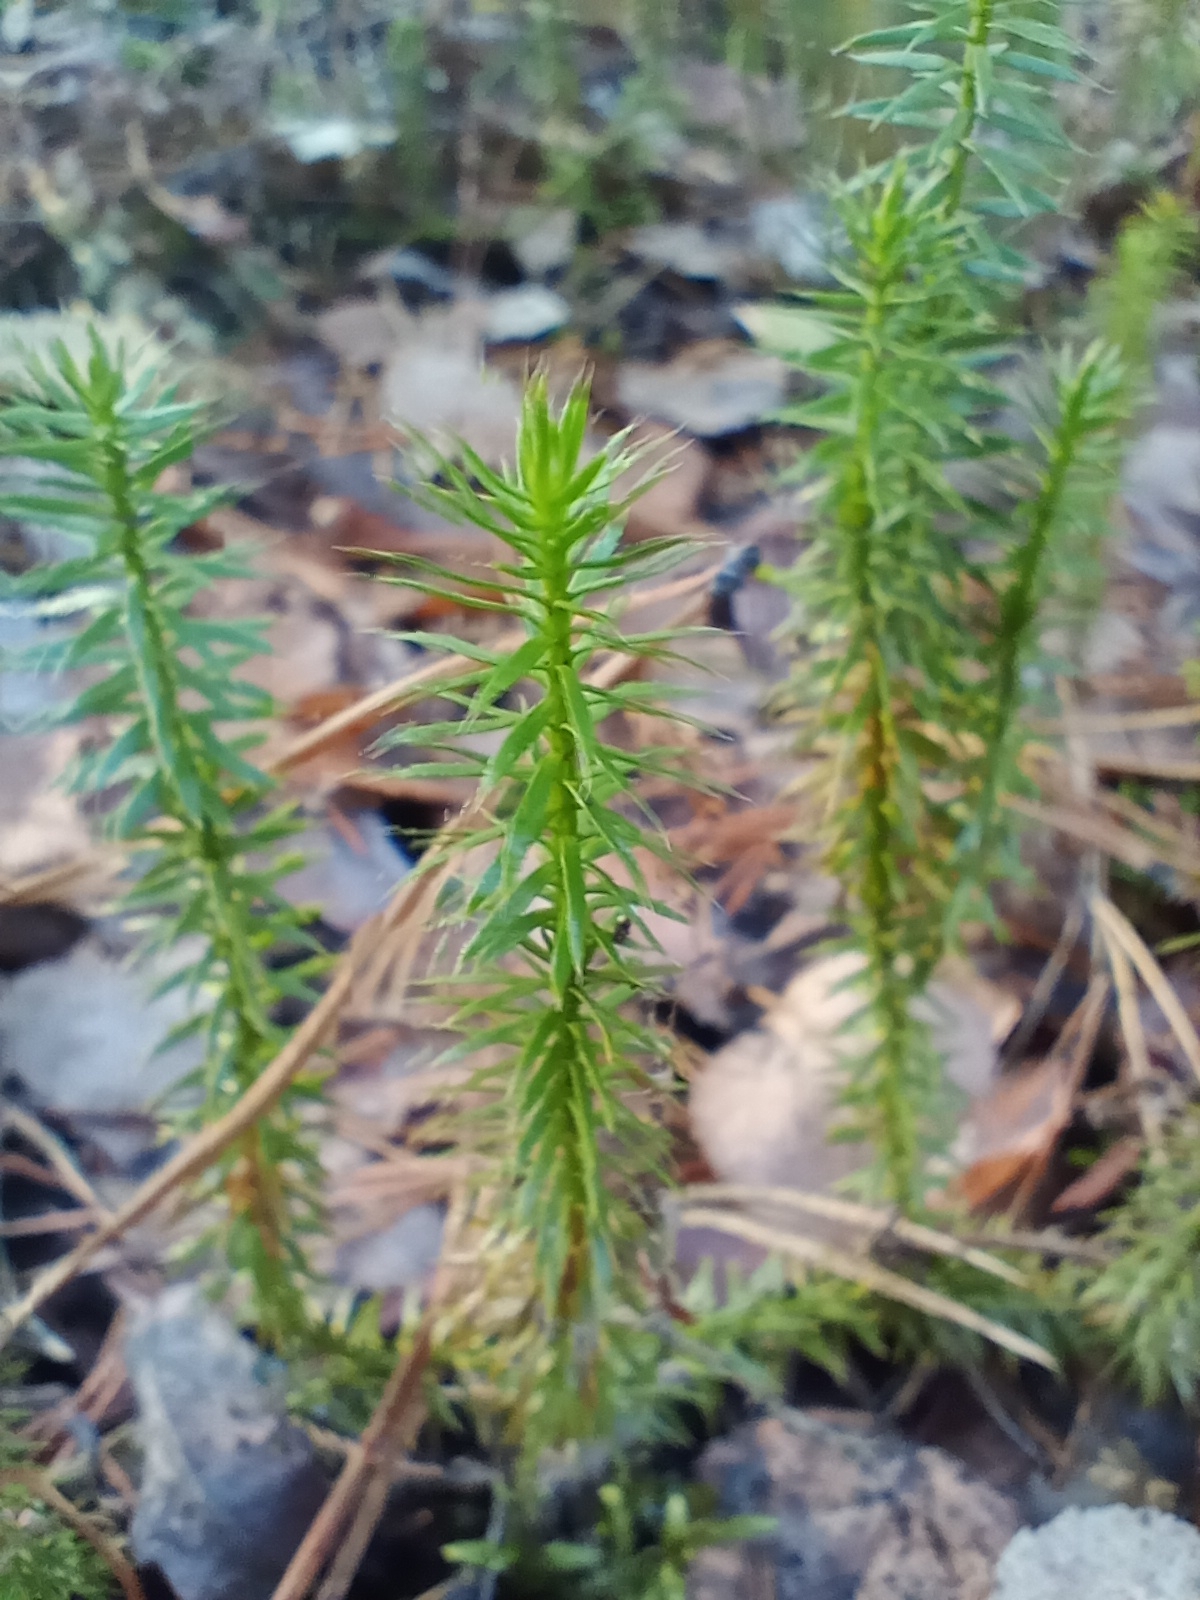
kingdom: Plantae
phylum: Tracheophyta
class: Lycopodiopsida
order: Lycopodiales
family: Lycopodiaceae
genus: Spinulum
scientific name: Spinulum annotinum
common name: Interrupted club-moss
